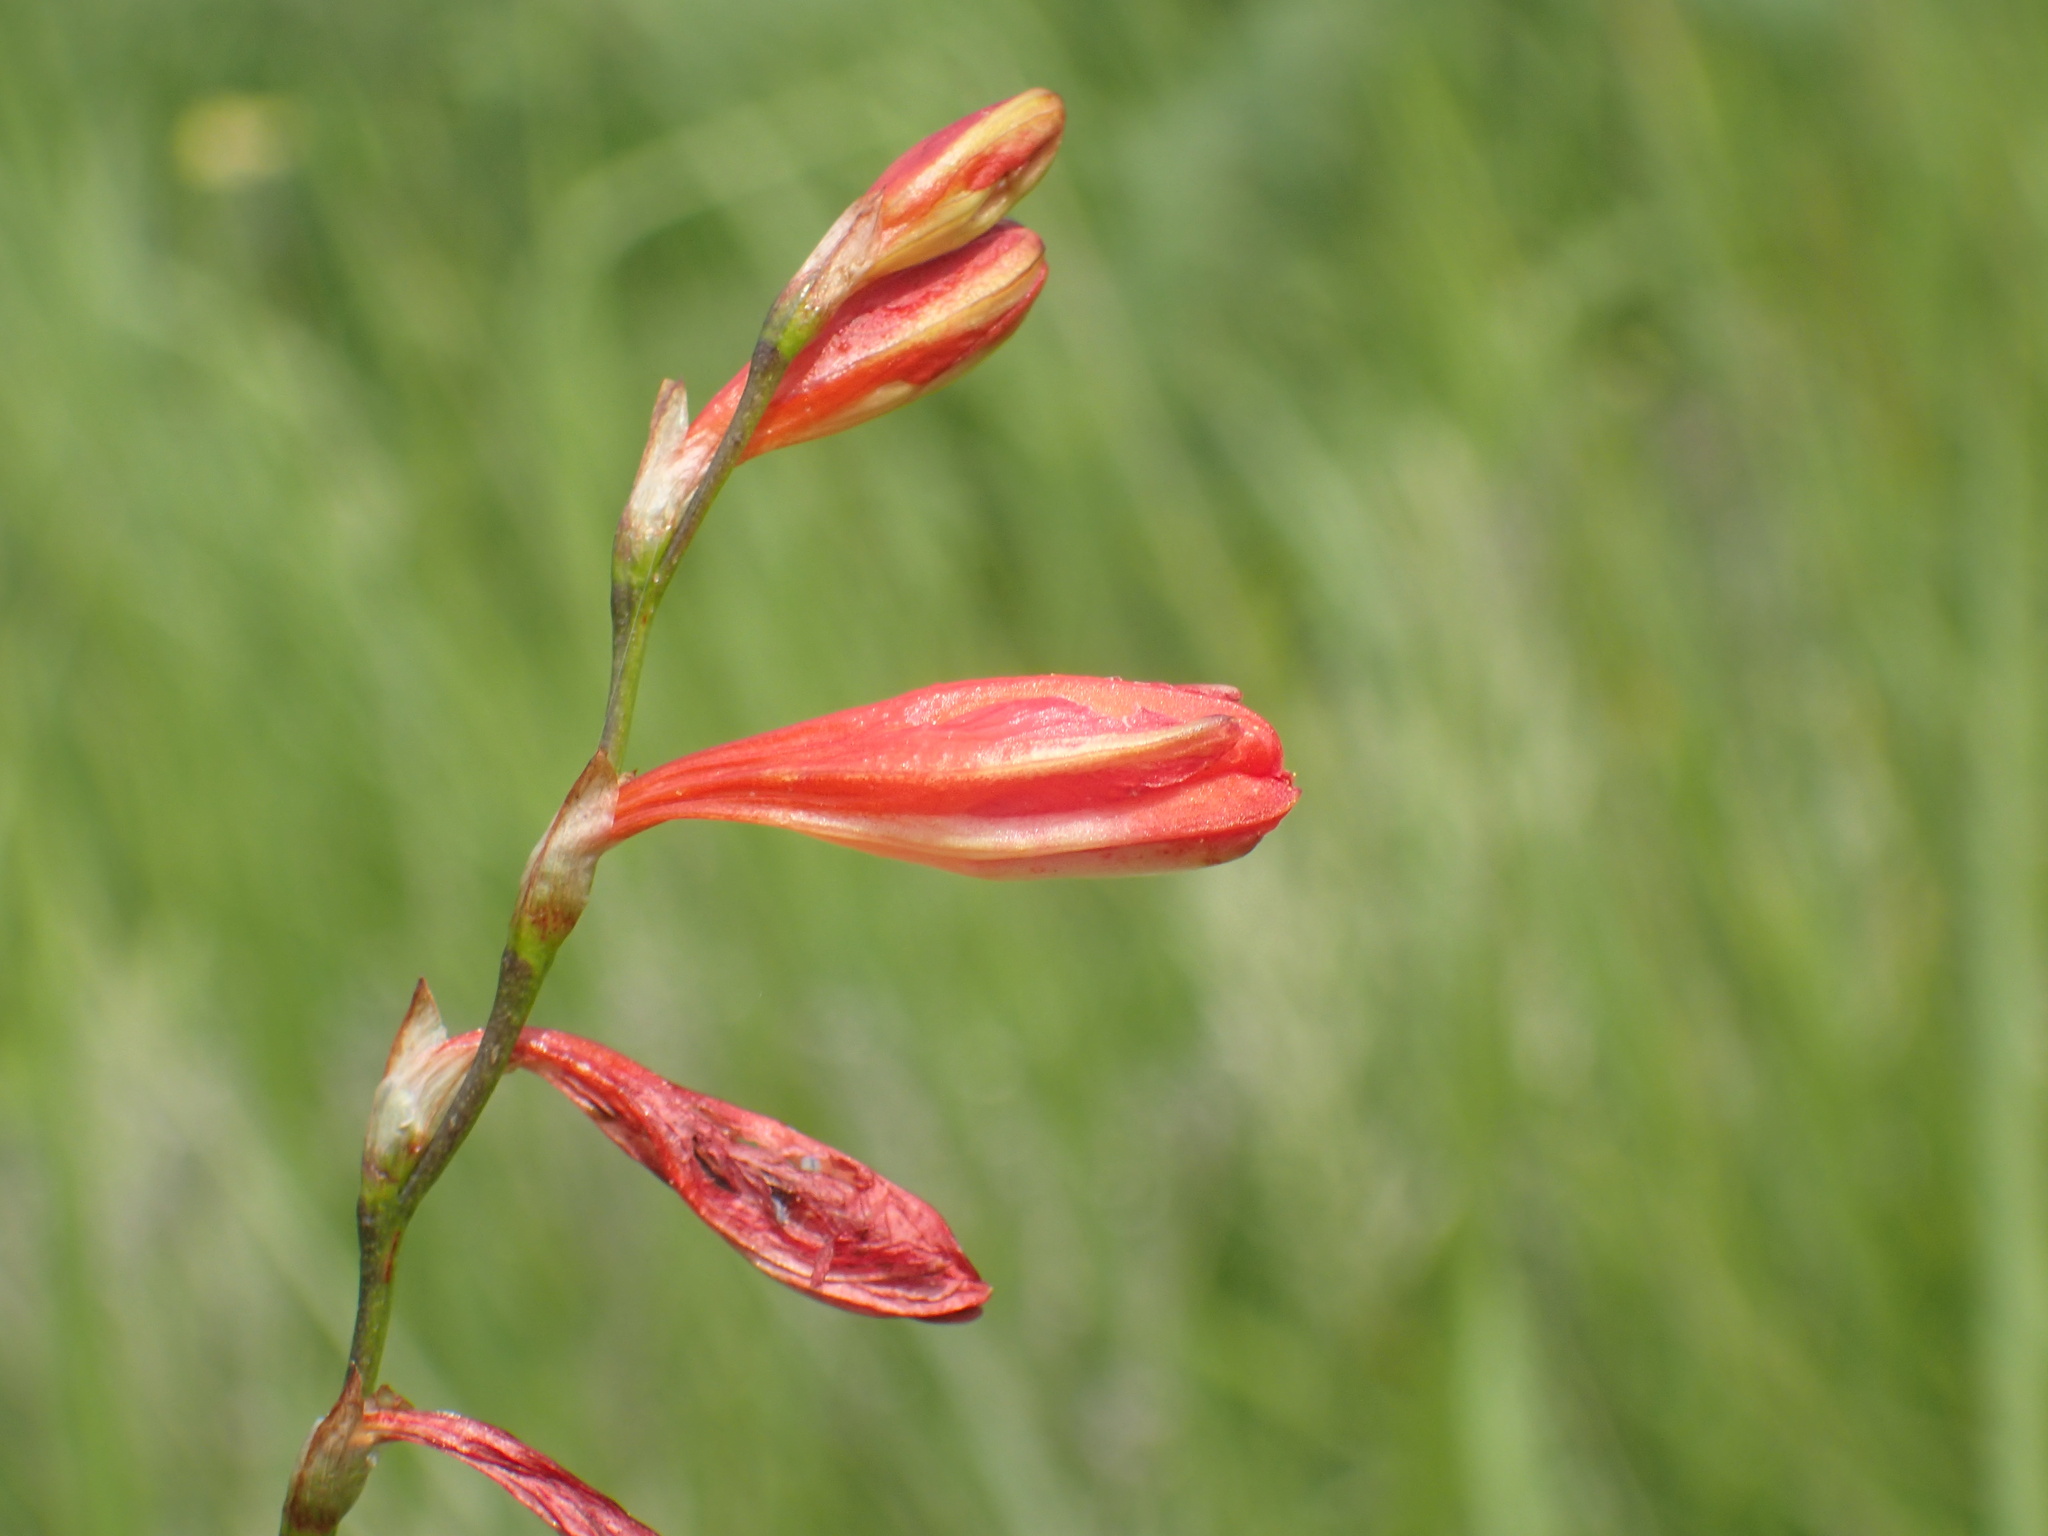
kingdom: Plantae
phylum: Tracheophyta
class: Liliopsida
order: Asparagales
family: Iridaceae
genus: Tritonia
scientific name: Tritonia disticha
